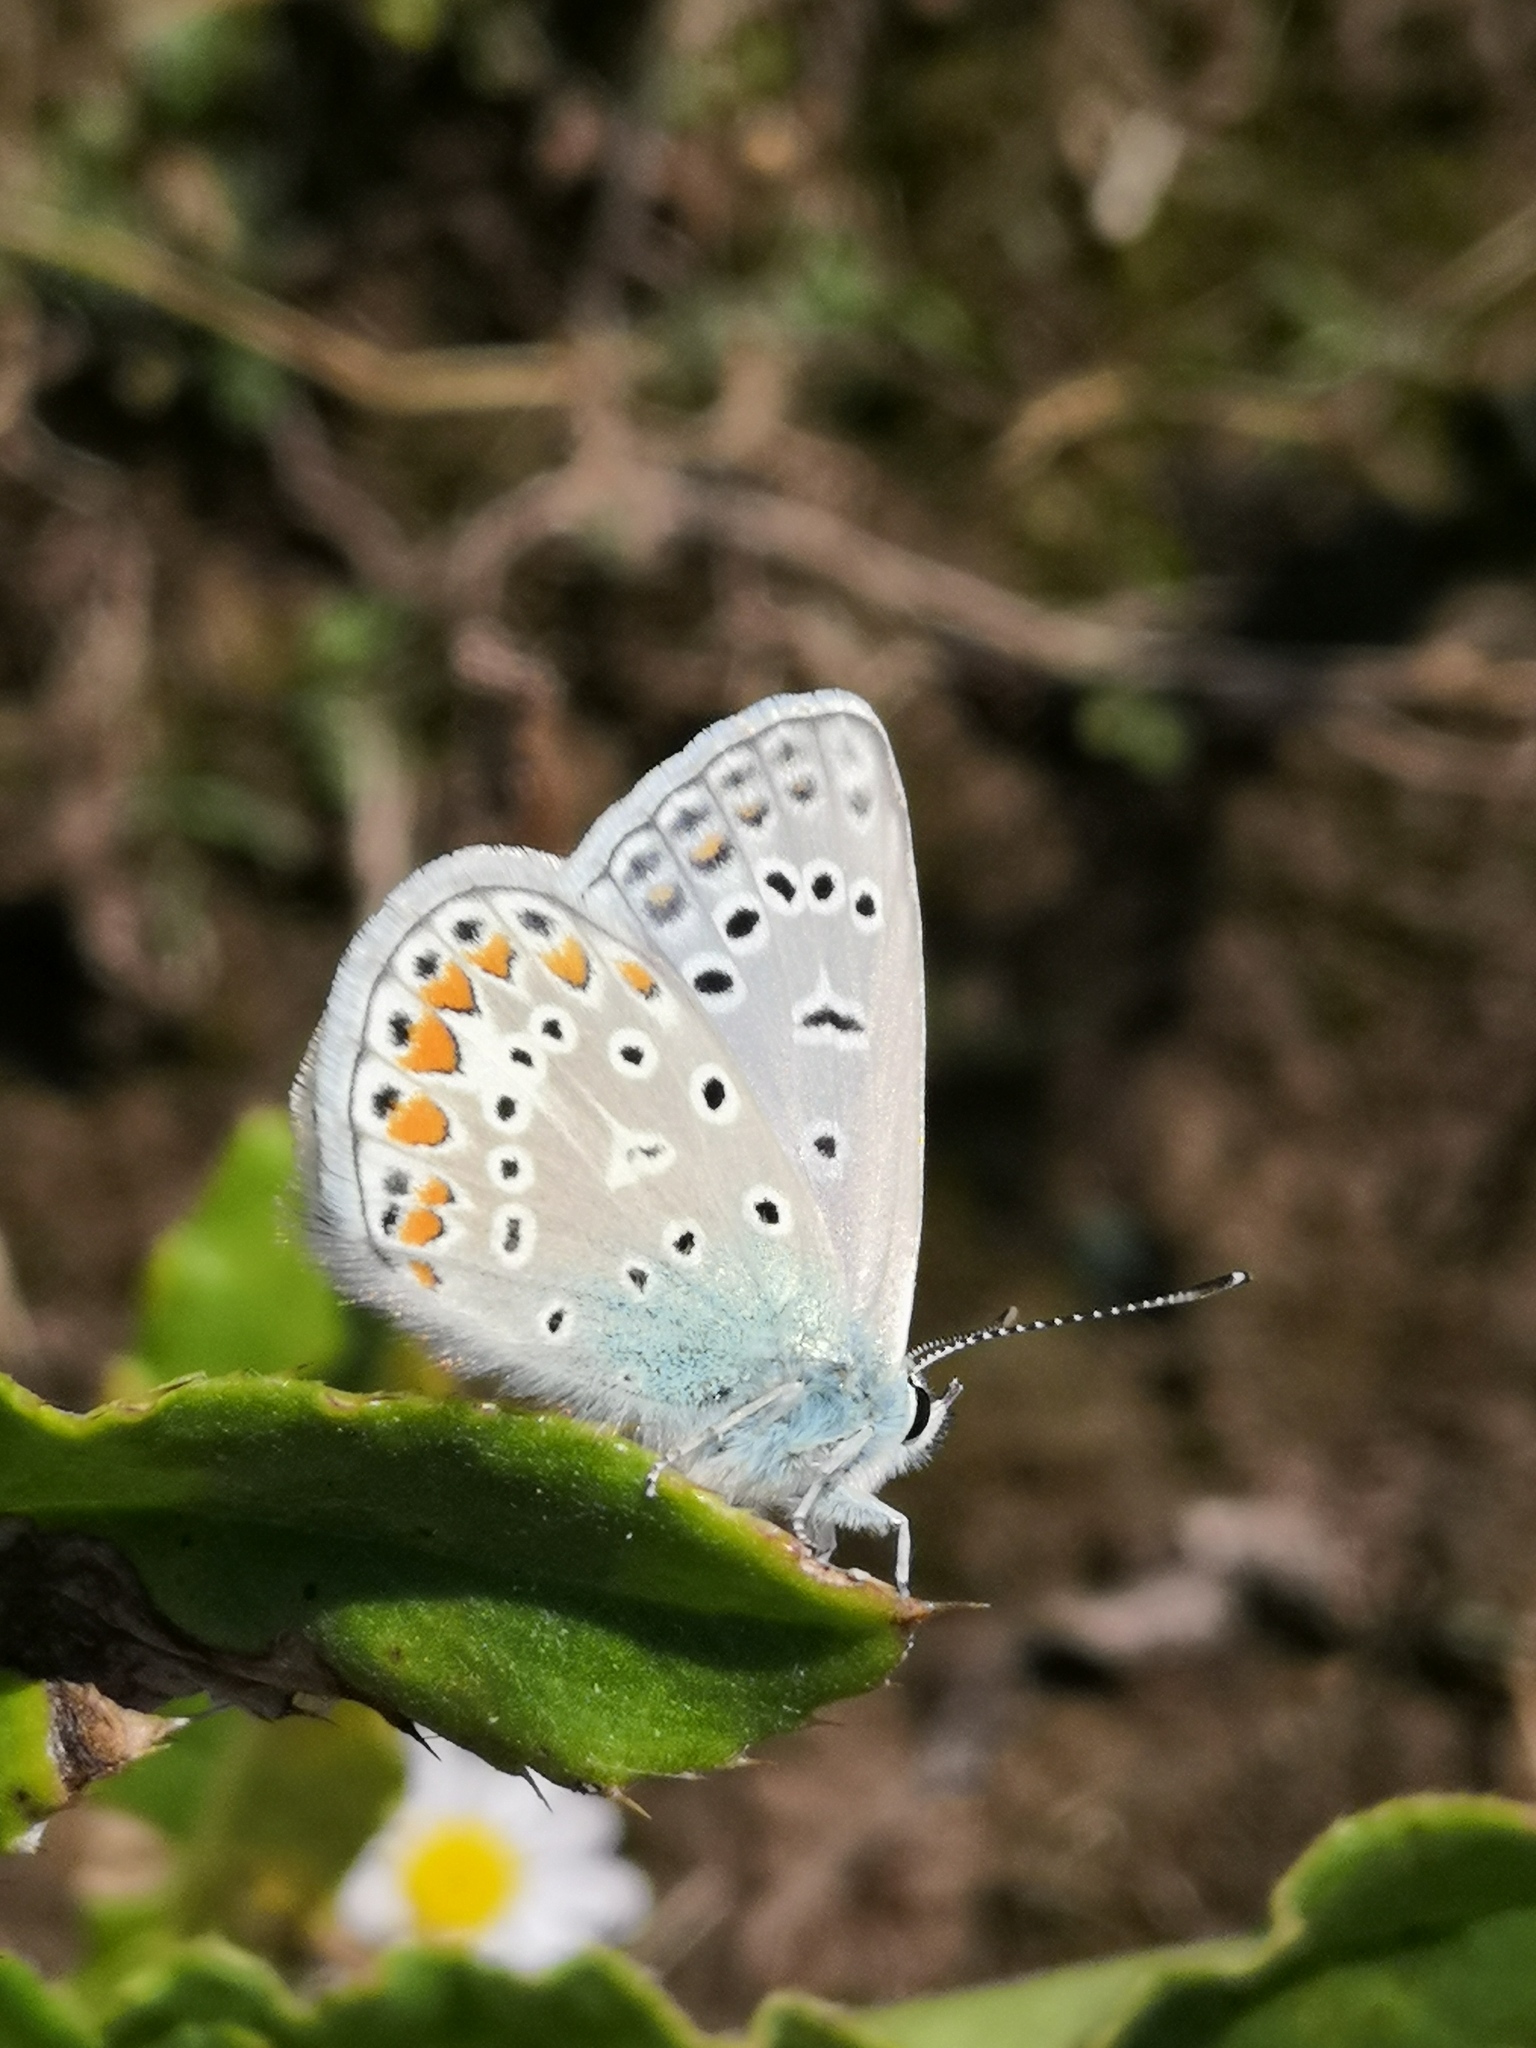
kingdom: Animalia
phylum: Arthropoda
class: Insecta
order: Lepidoptera
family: Lycaenidae
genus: Polyommatus
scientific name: Polyommatus icarus
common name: Common blue
